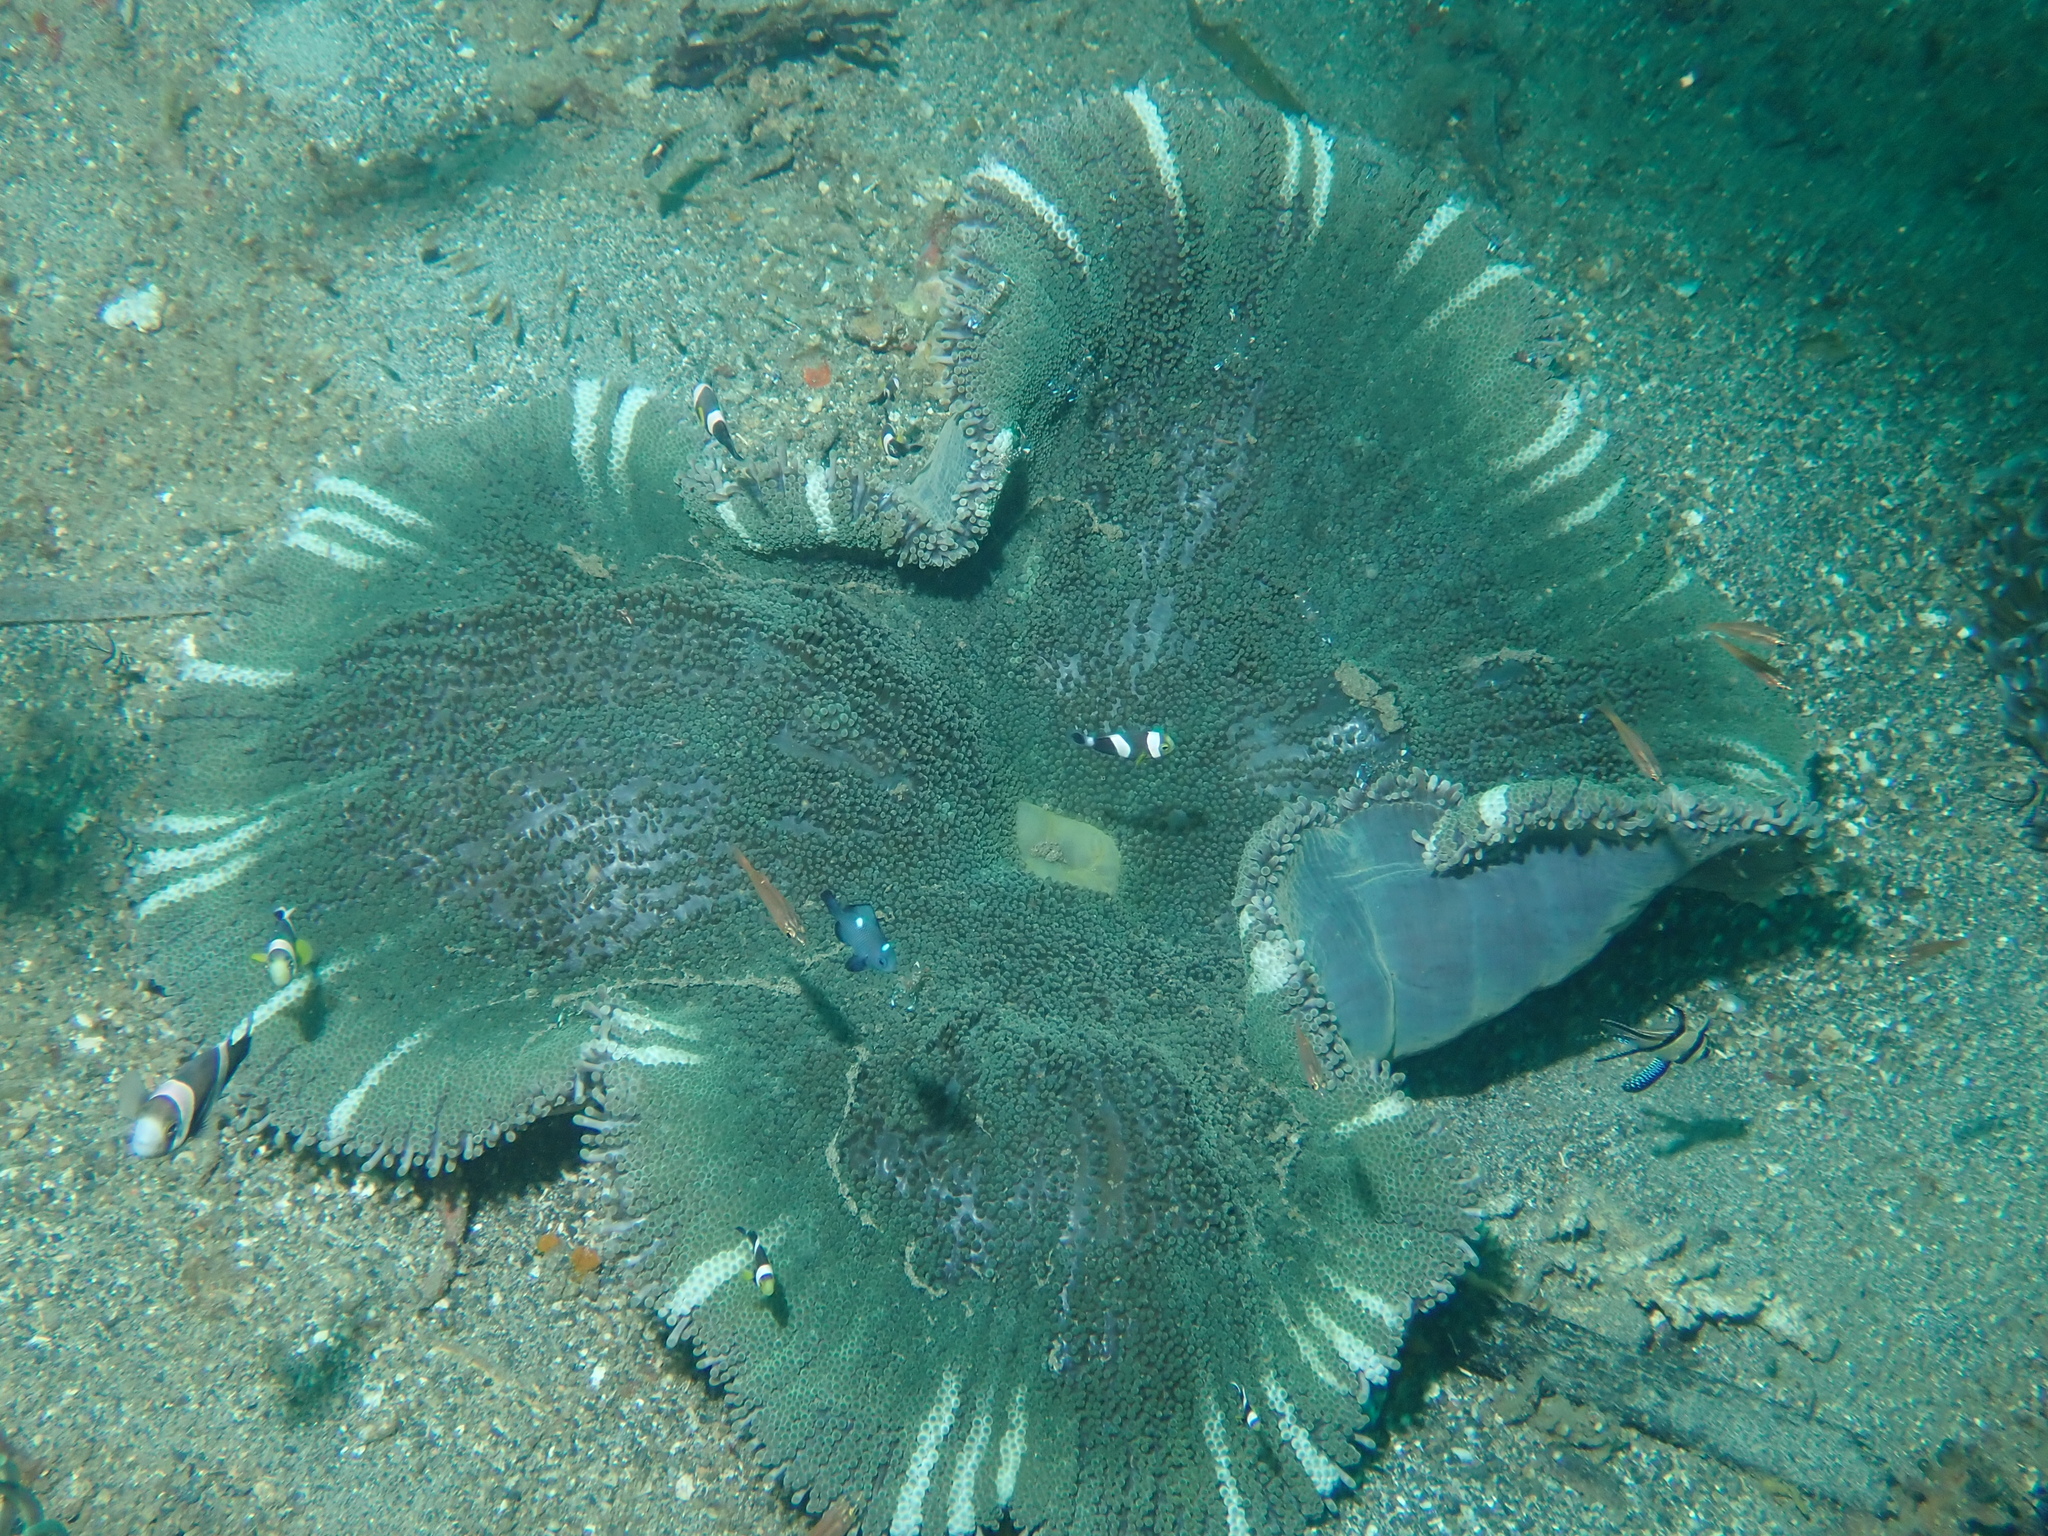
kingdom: Animalia
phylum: Cnidaria
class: Anthozoa
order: Actiniaria
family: Stichodactylidae
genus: Stichodactyla
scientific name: Stichodactyla haddoni
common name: Haddon's sea anemone
